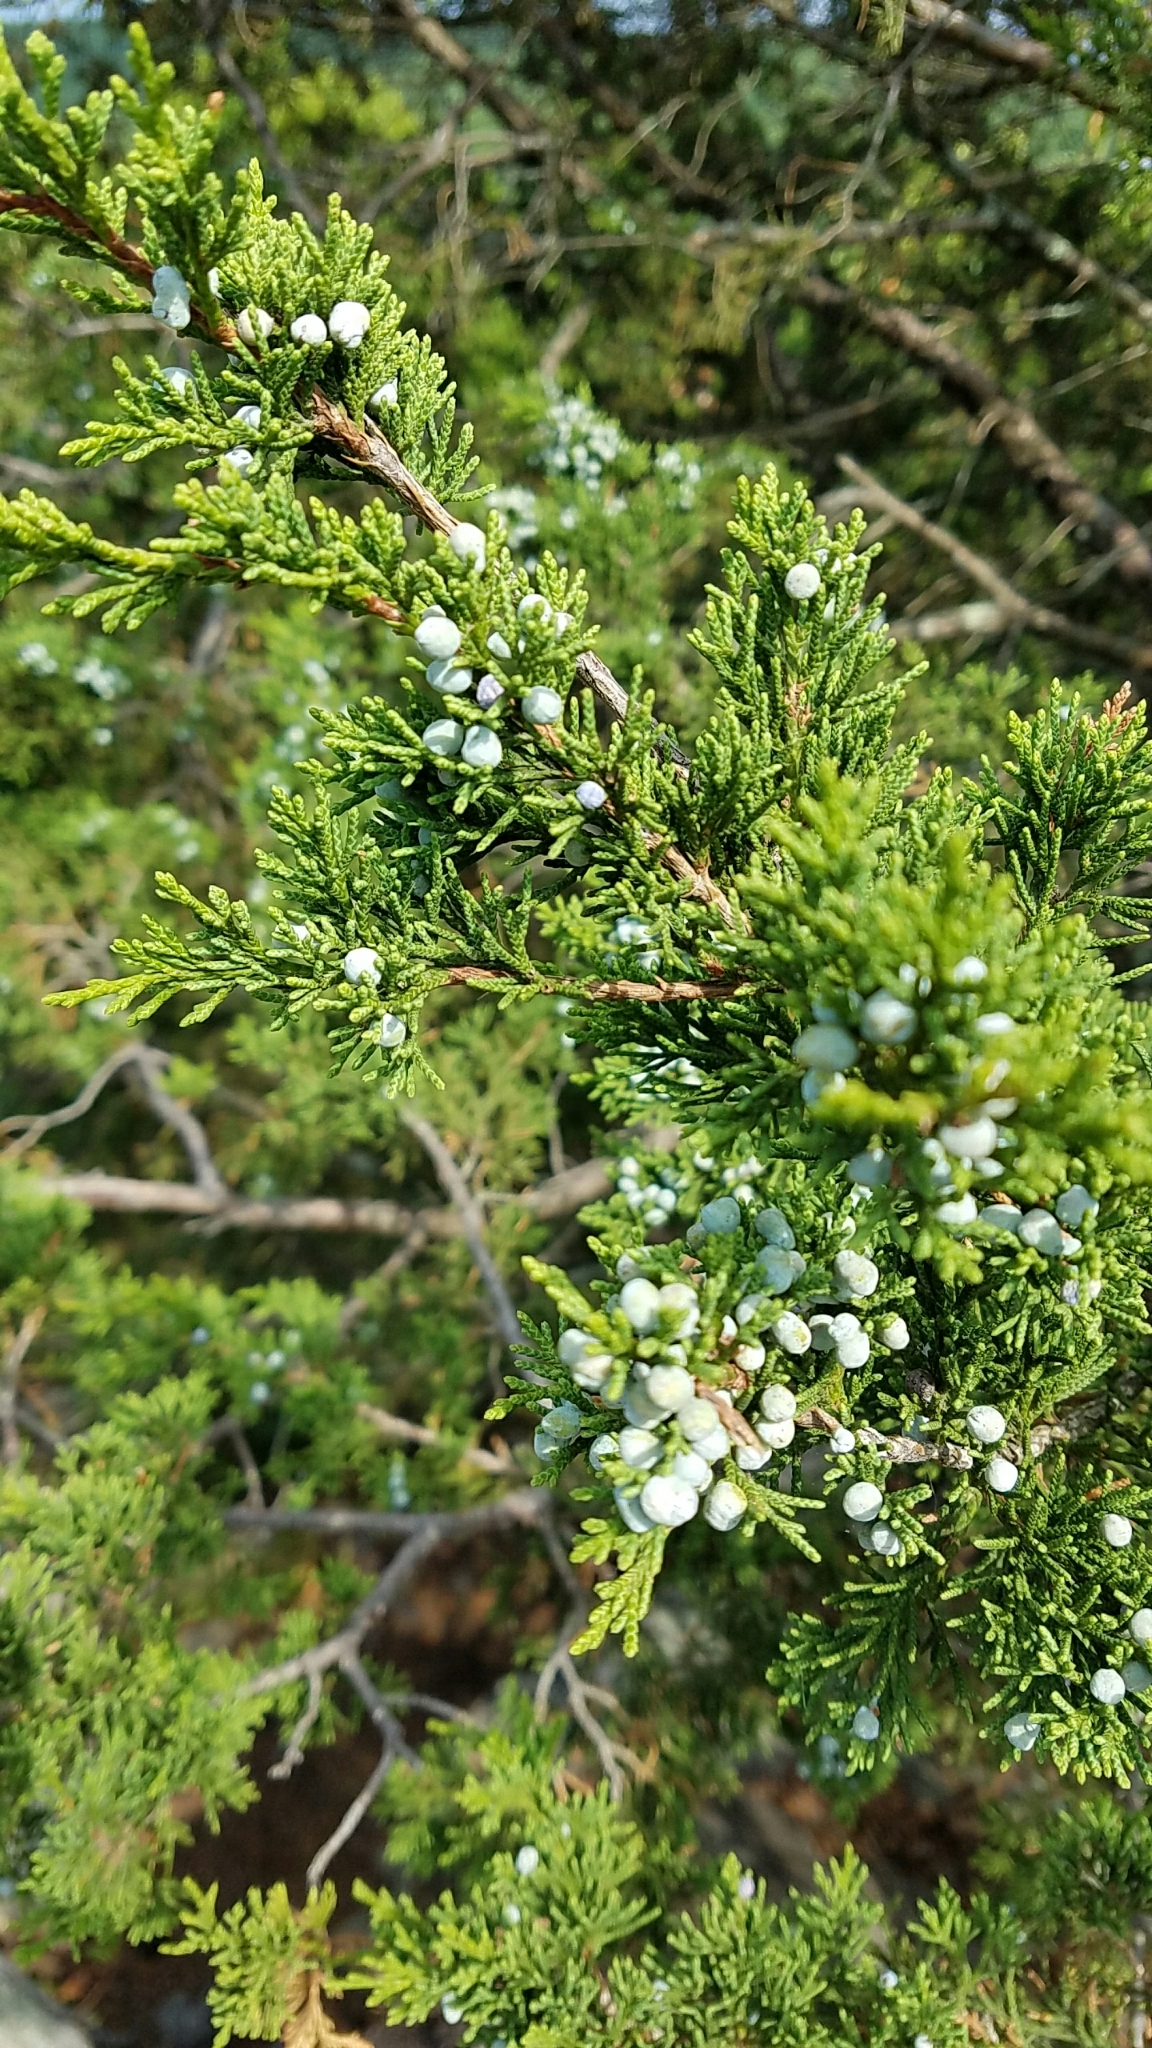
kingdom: Plantae
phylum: Tracheophyta
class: Pinopsida
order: Pinales
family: Cupressaceae
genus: Juniperus
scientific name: Juniperus virginiana
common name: Red juniper
